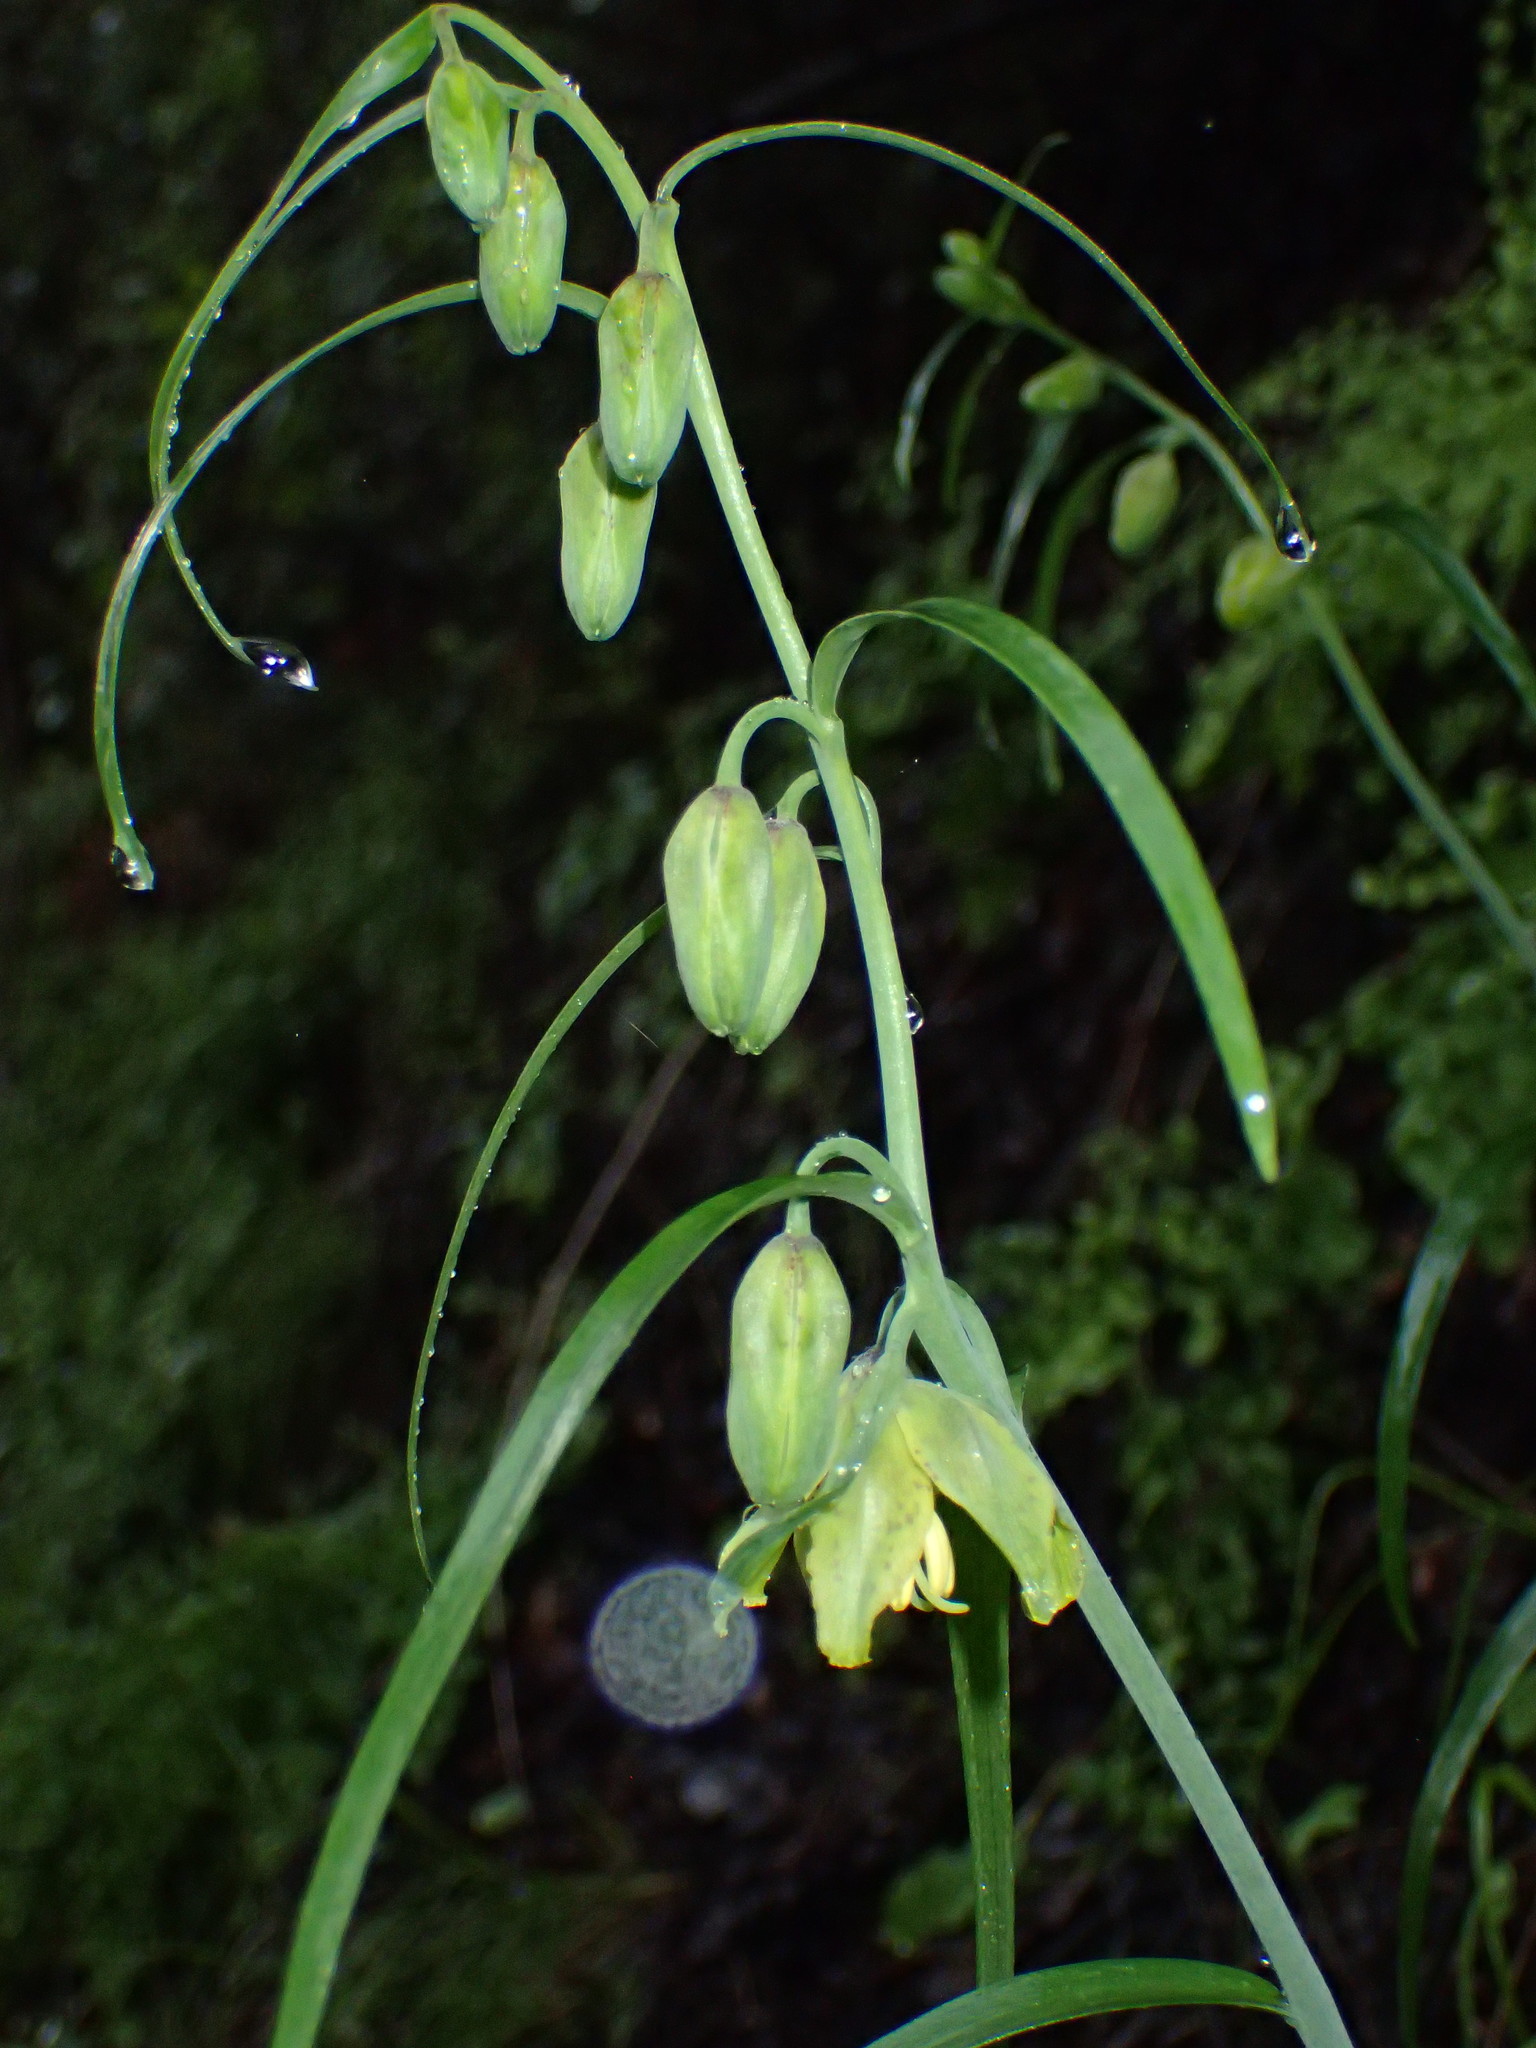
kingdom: Plantae
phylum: Tracheophyta
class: Liliopsida
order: Liliales
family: Liliaceae
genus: Fritillaria
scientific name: Fritillaria ojaiensis
